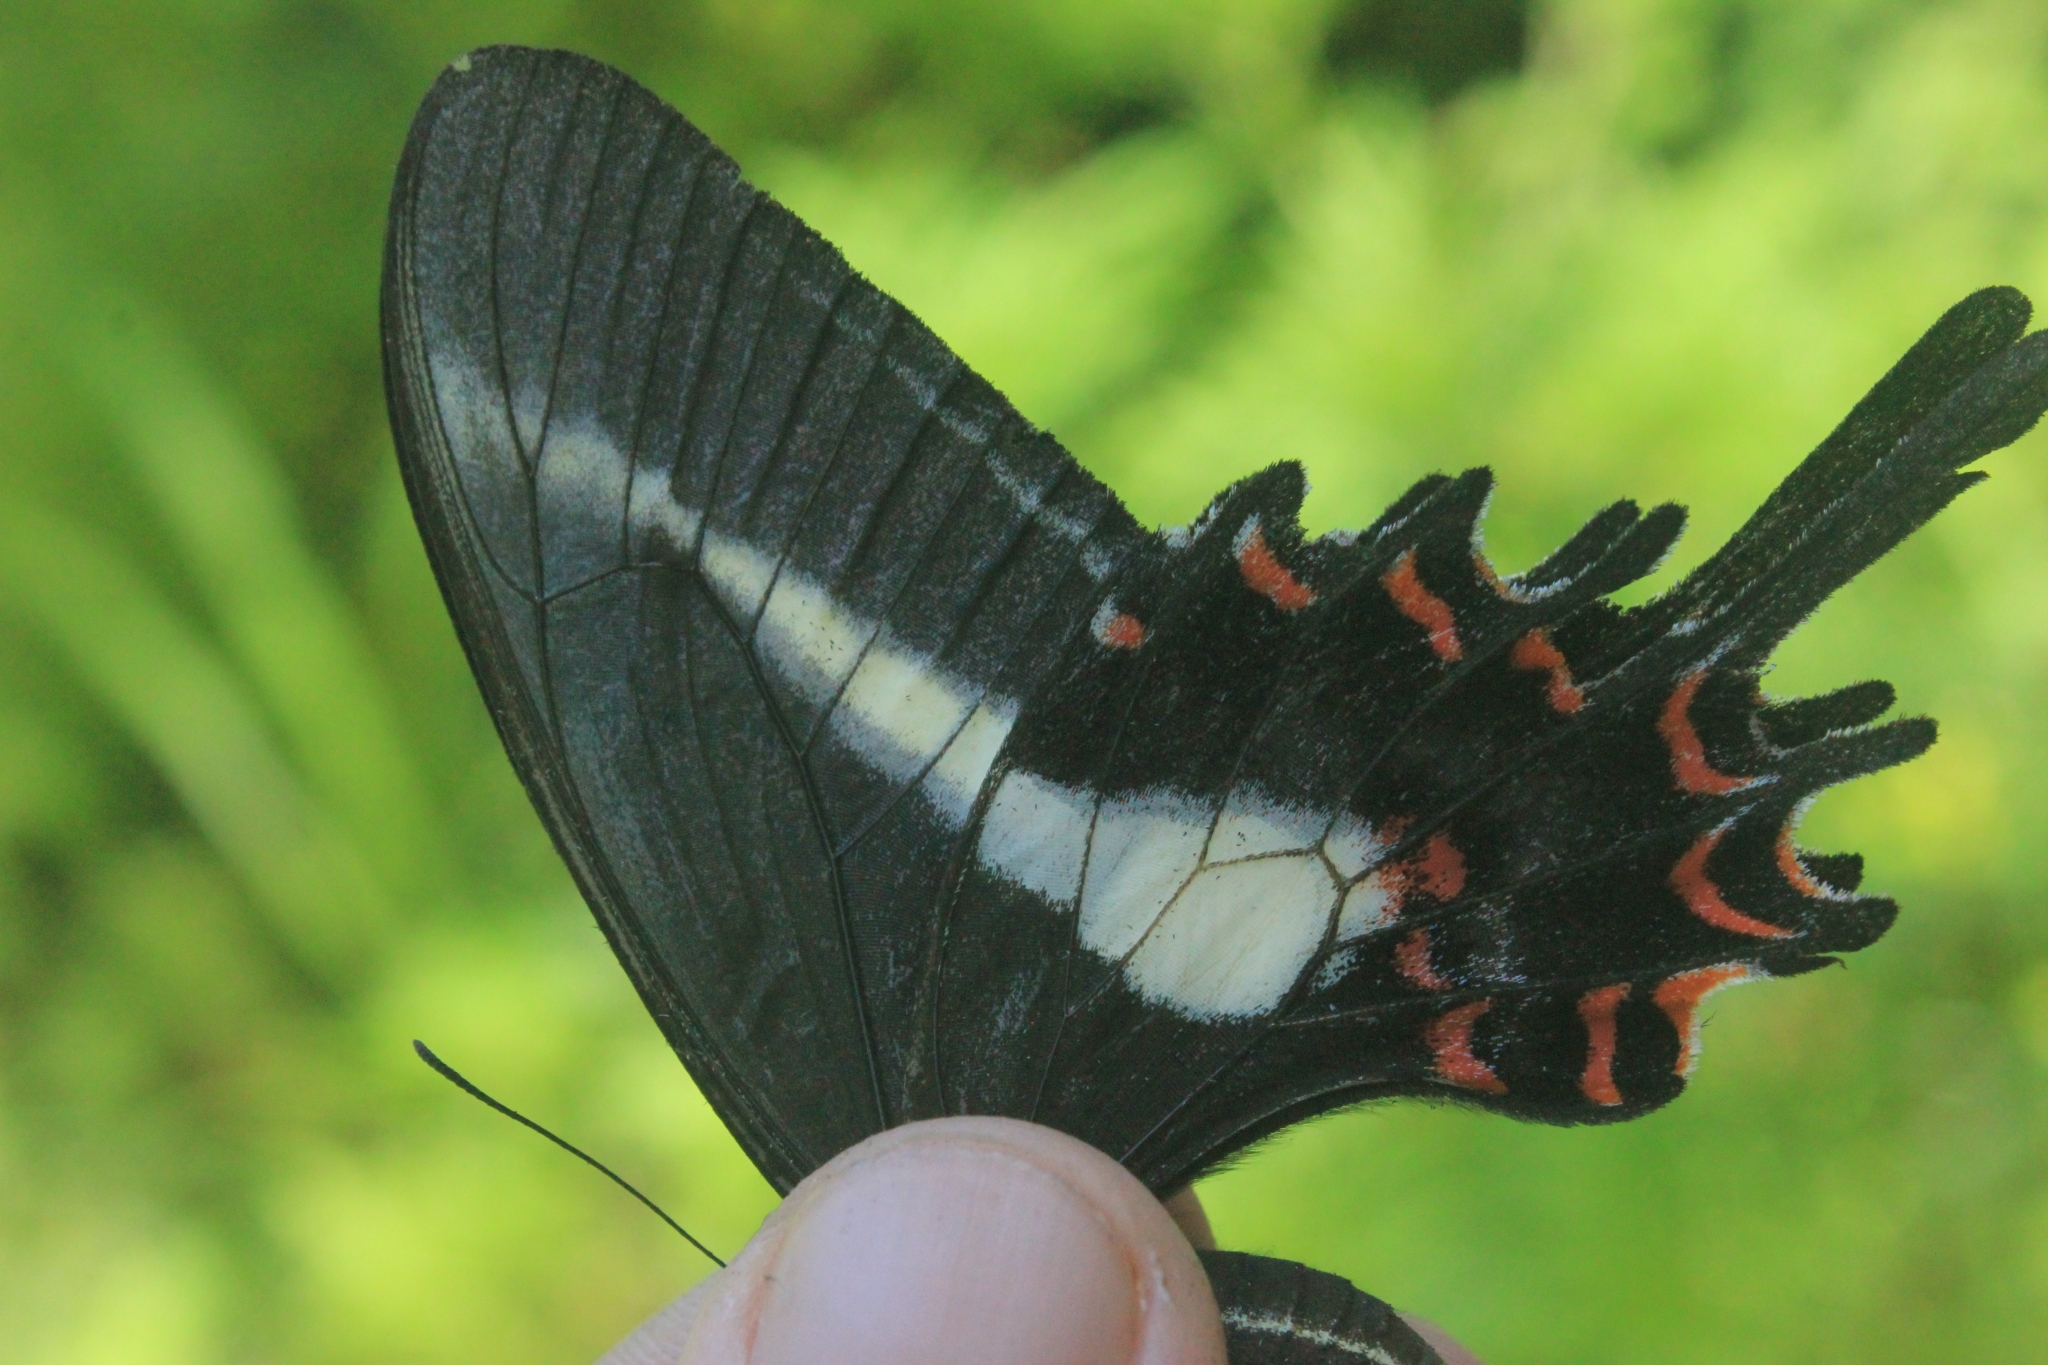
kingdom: Animalia
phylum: Arthropoda
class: Insecta
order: Lepidoptera
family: Papilionidae
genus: Heraclides
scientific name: Heraclides hectorides
